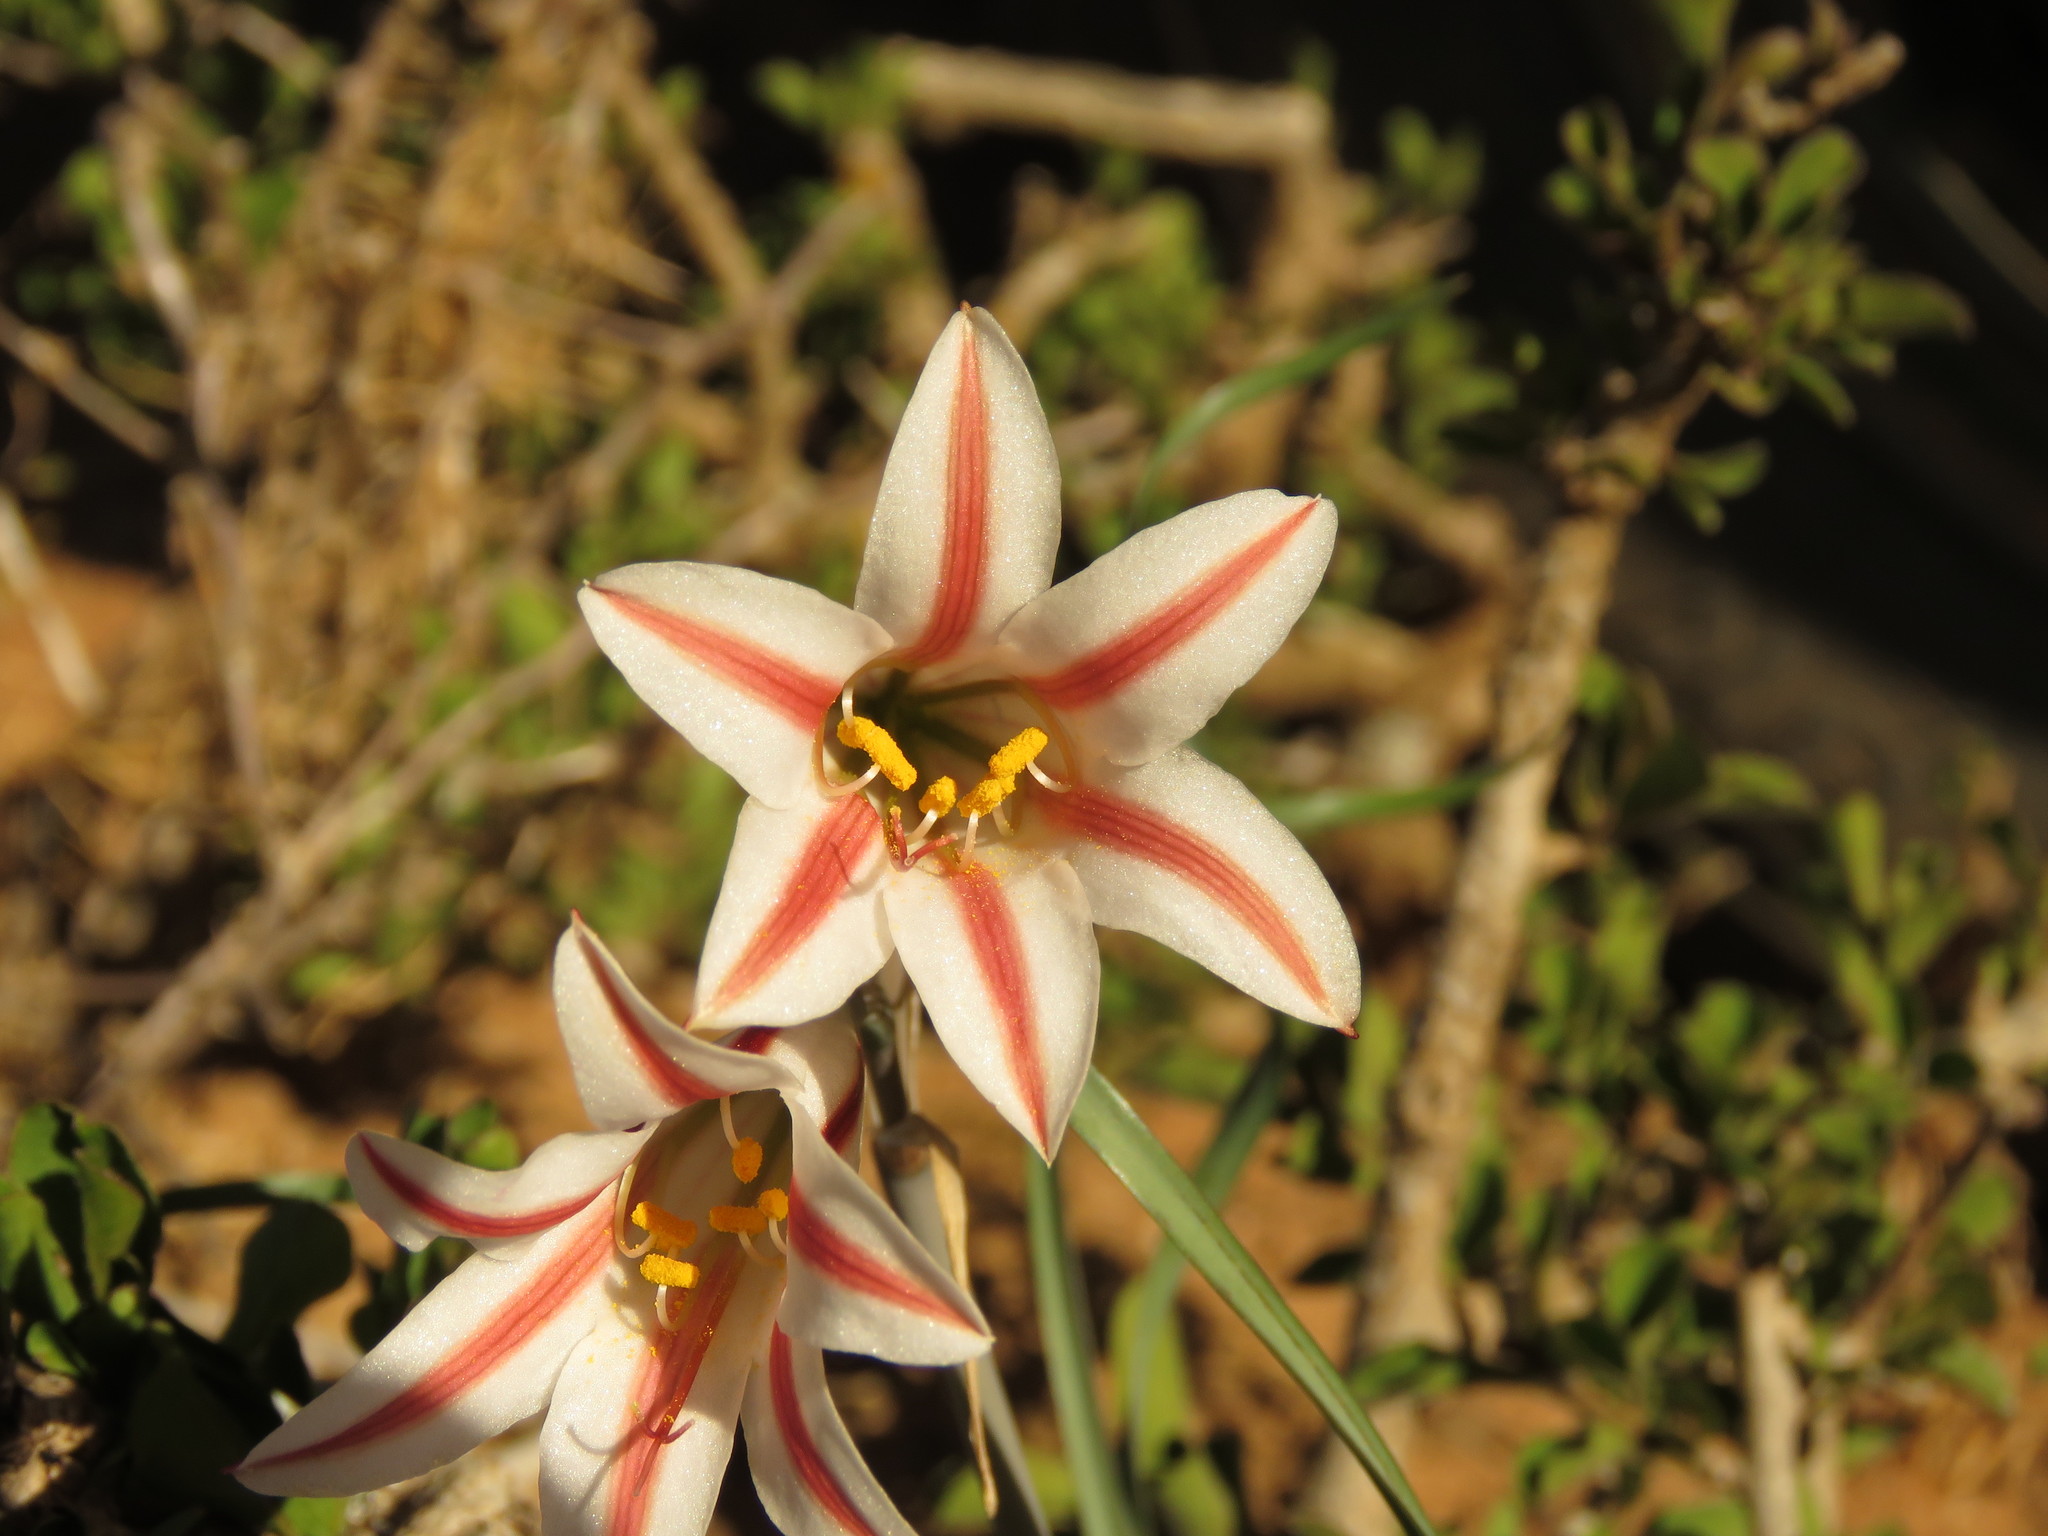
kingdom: Plantae
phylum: Tracheophyta
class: Liliopsida
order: Asparagales
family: Amaryllidaceae
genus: Cyrtanthus
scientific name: Cyrtanthus smithiae
